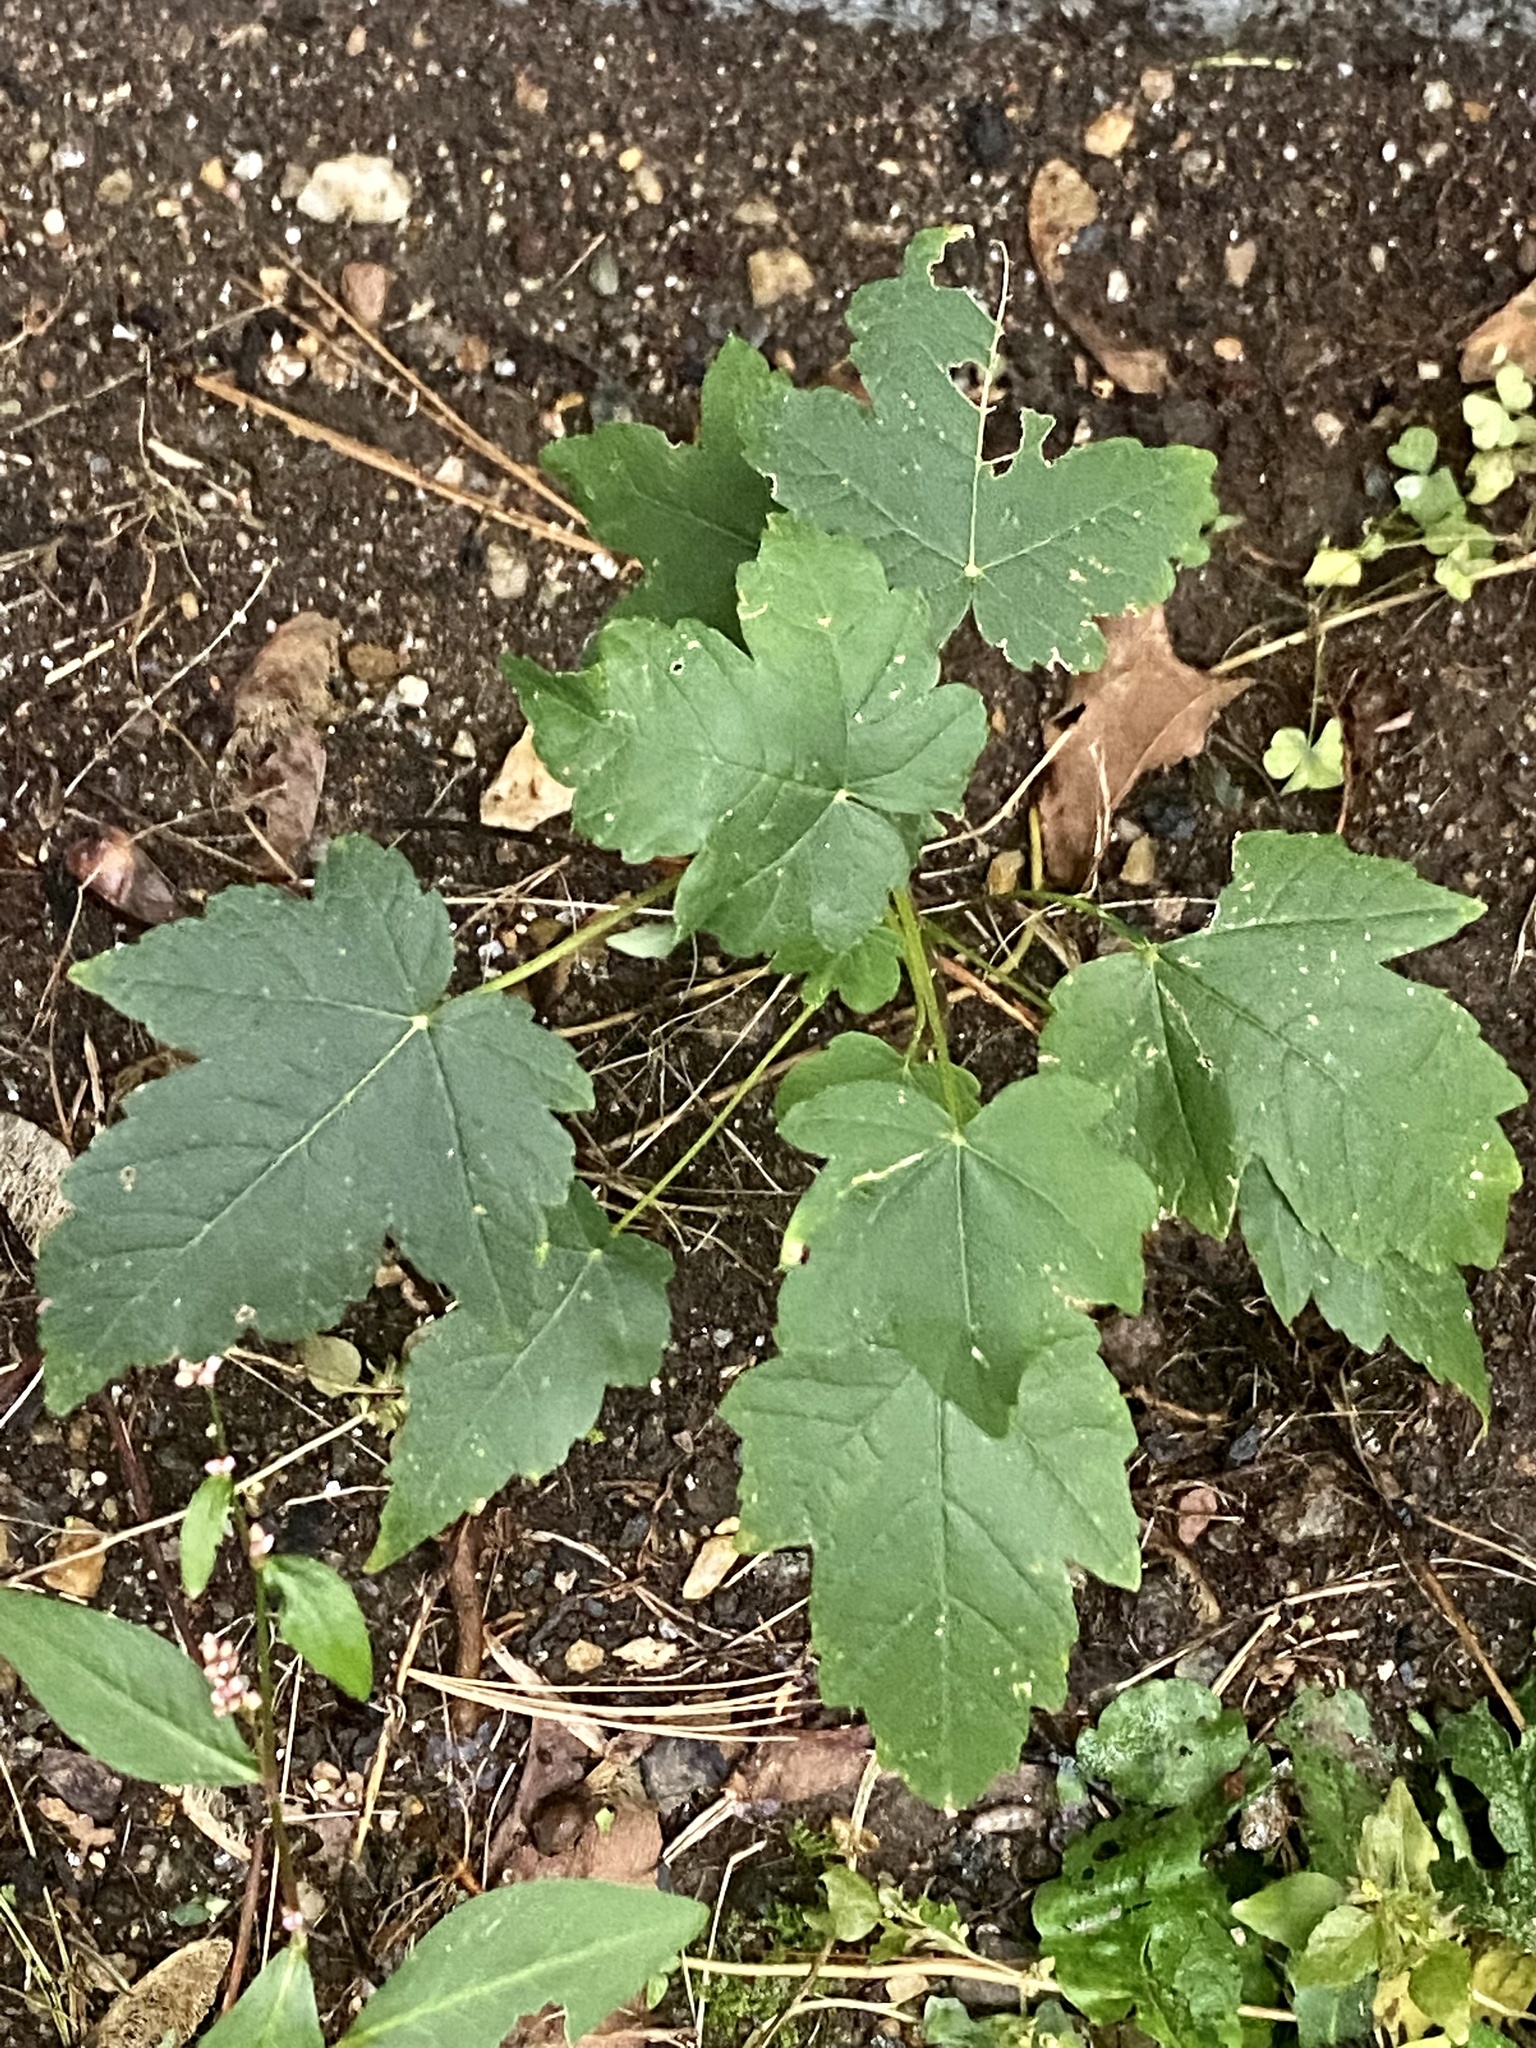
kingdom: Plantae
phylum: Tracheophyta
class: Magnoliopsida
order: Sapindales
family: Sapindaceae
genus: Acer
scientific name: Acer pseudoplatanus
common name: Sycamore
